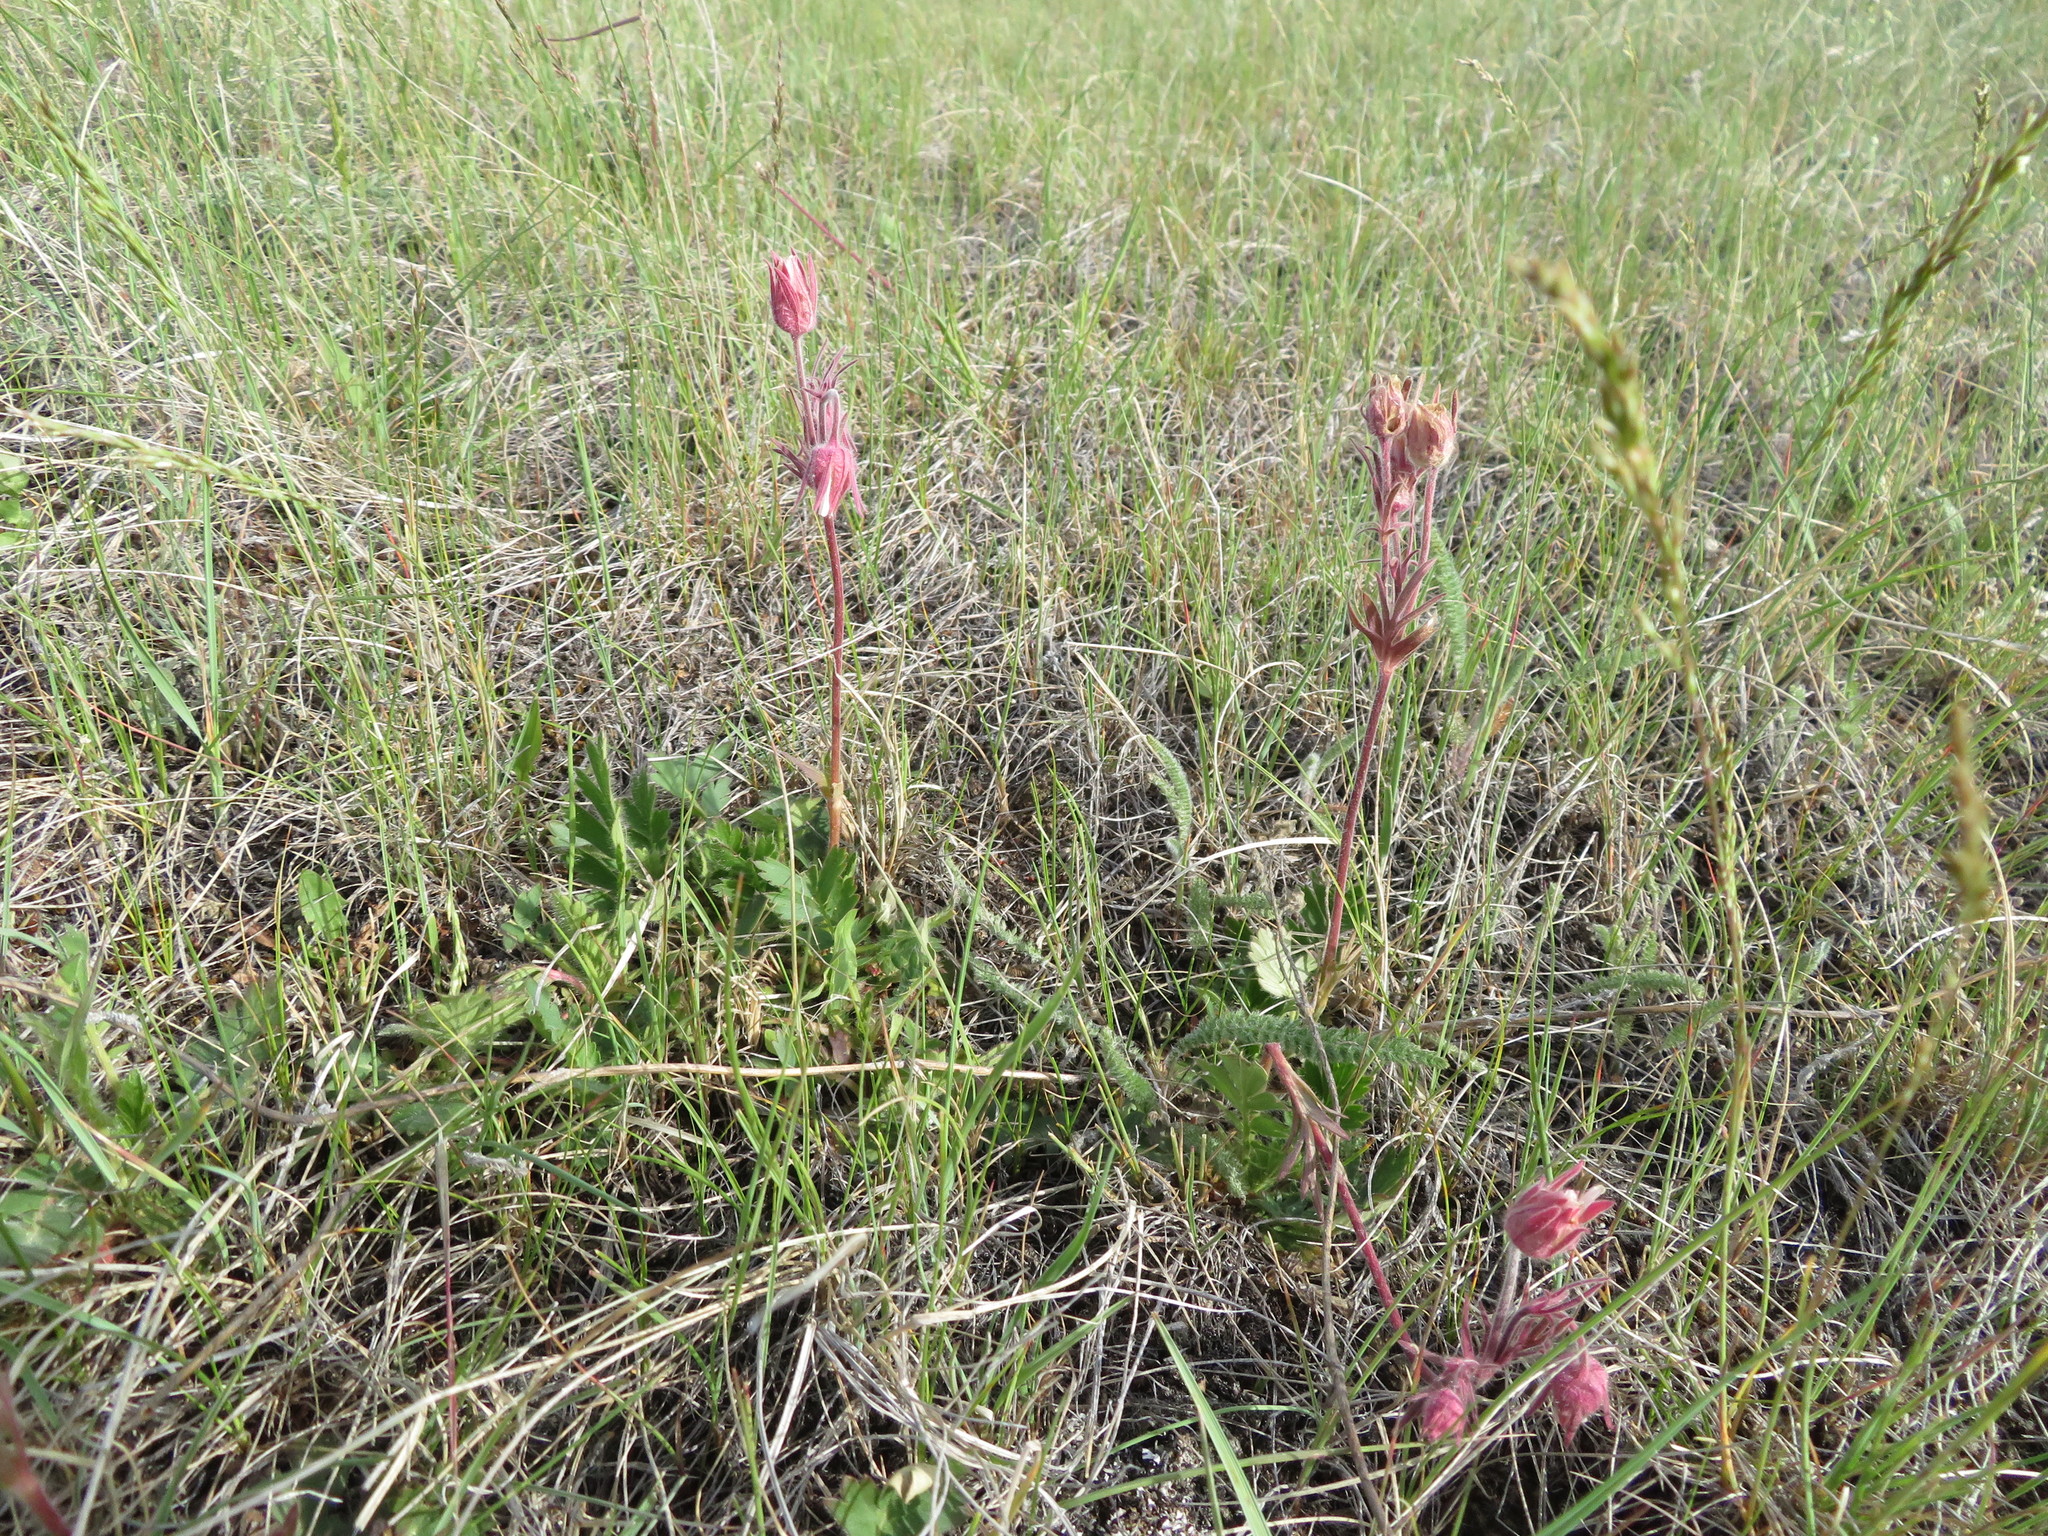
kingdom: Plantae
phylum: Tracheophyta
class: Magnoliopsida
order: Rosales
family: Rosaceae
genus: Geum
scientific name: Geum triflorum
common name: Old man's whiskers
